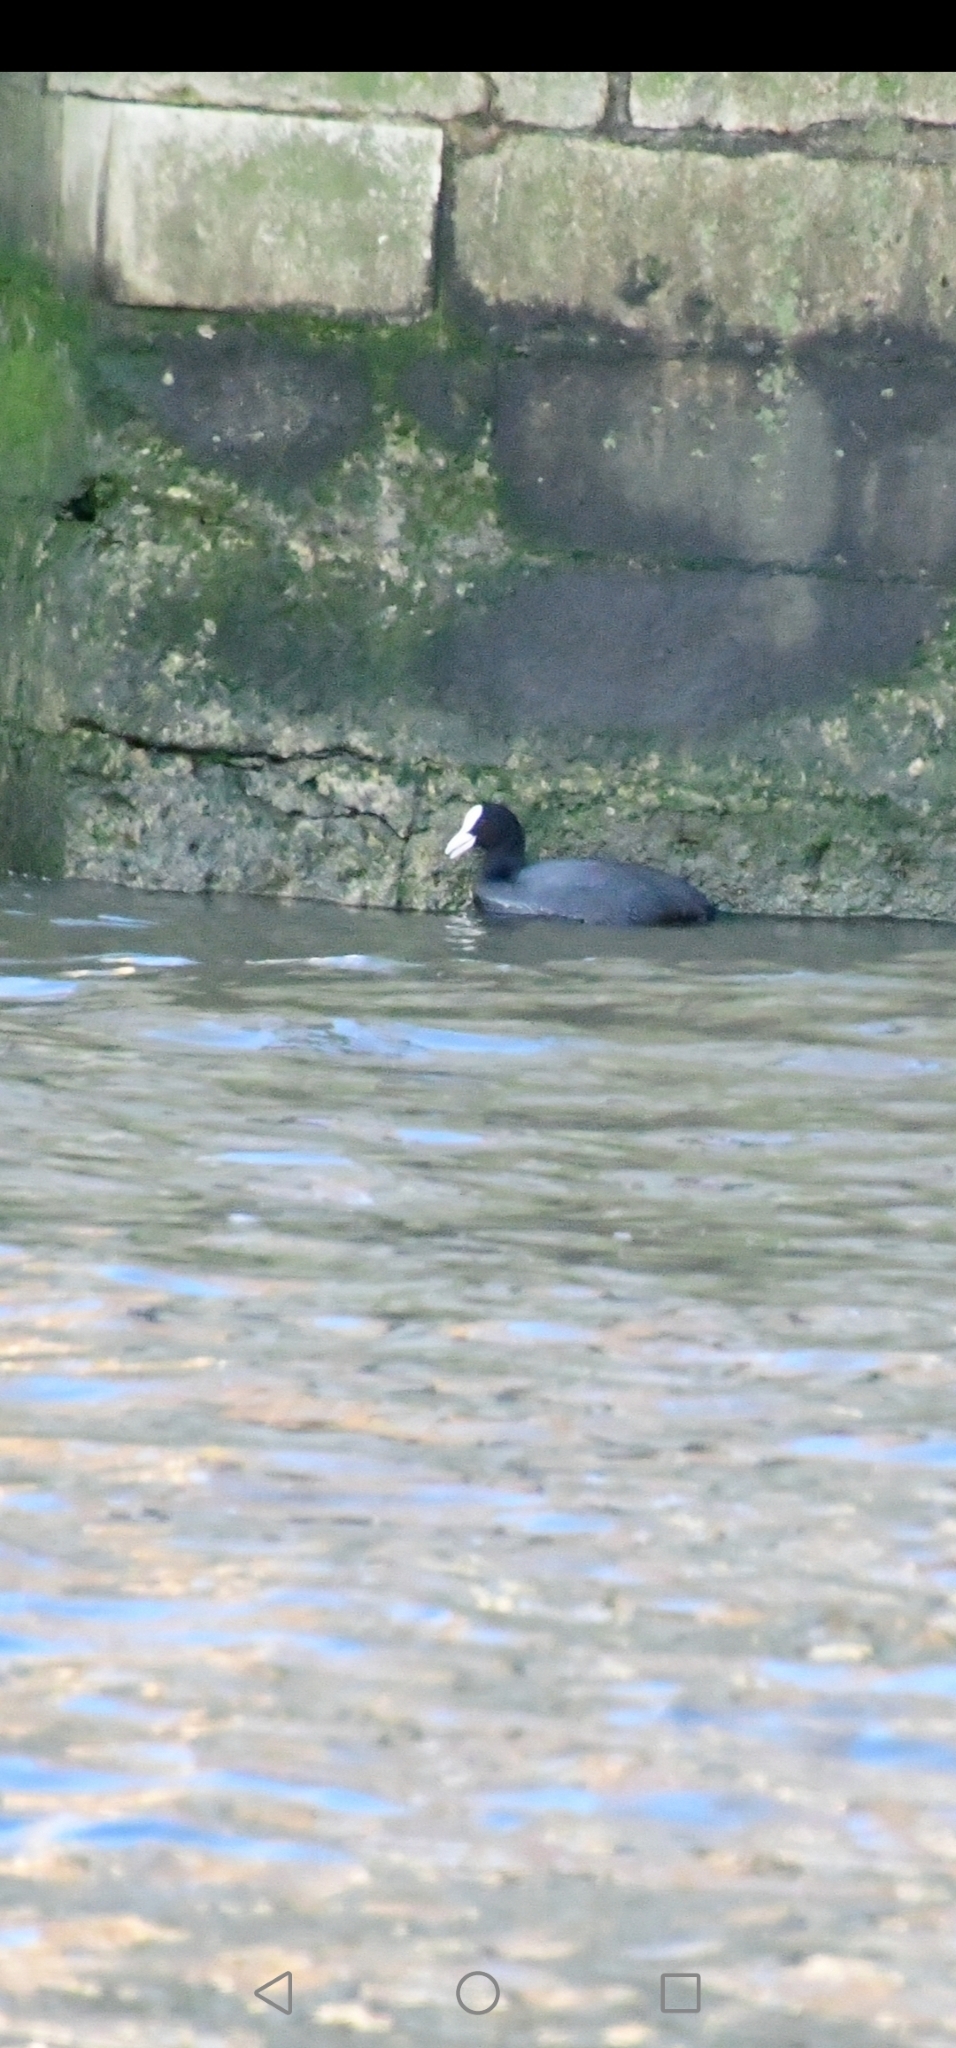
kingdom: Animalia
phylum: Chordata
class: Aves
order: Gruiformes
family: Rallidae
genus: Fulica
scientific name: Fulica atra
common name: Eurasian coot
